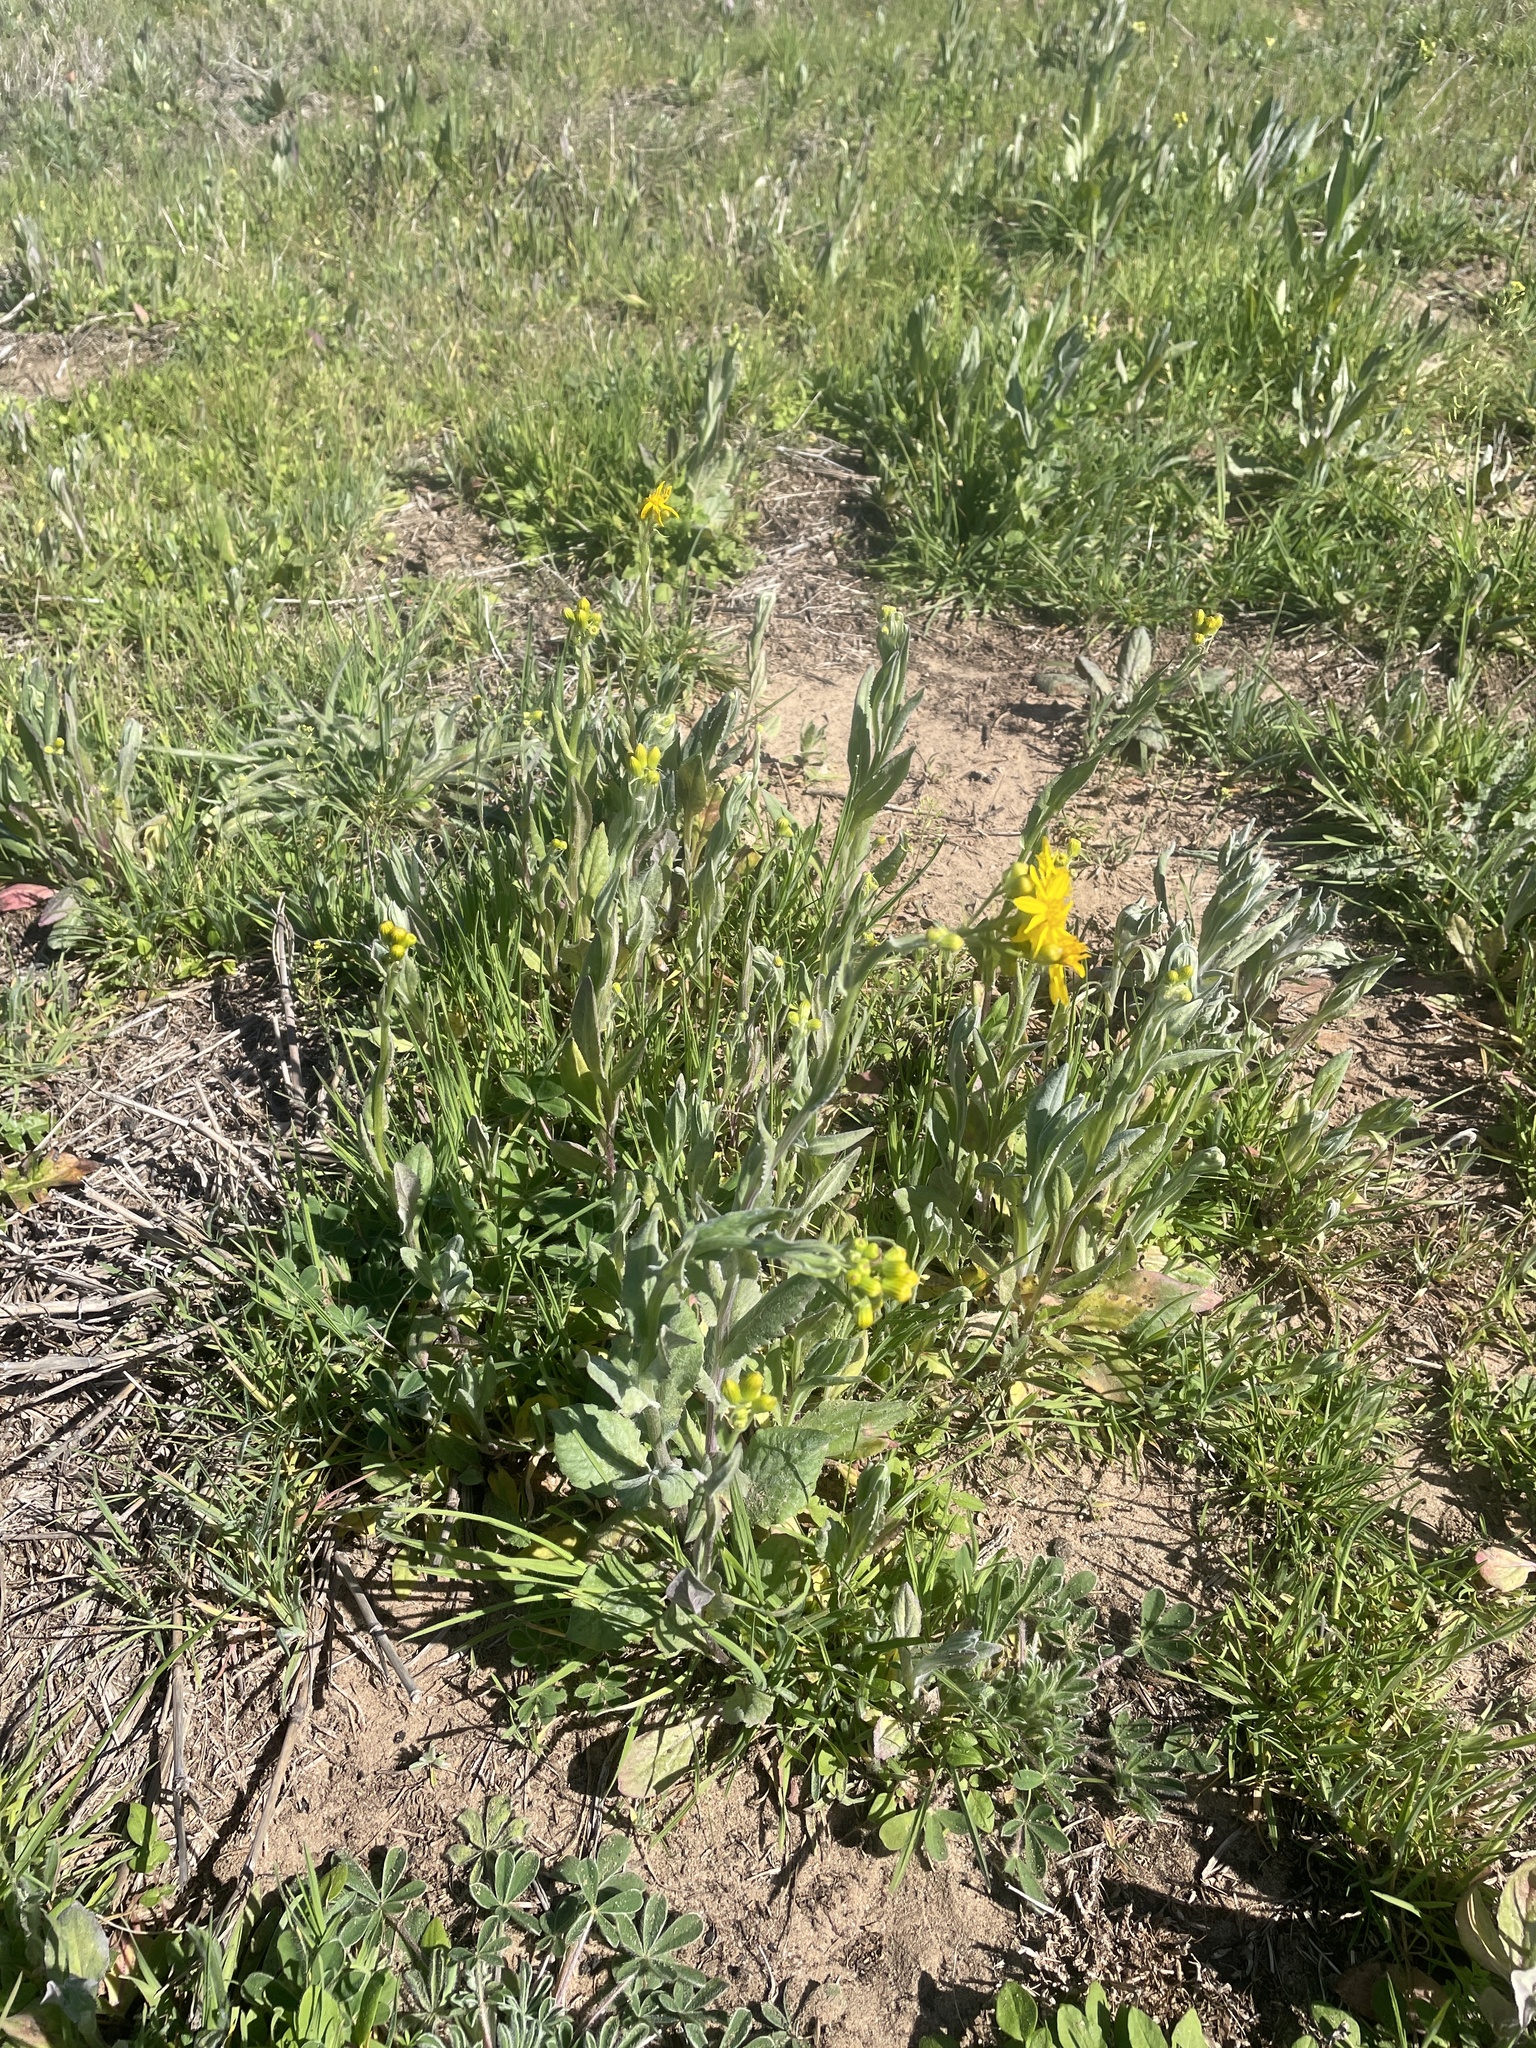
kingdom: Plantae
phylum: Tracheophyta
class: Magnoliopsida
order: Asterales
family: Asteraceae
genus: Senecio
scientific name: Senecio ampullaceus
